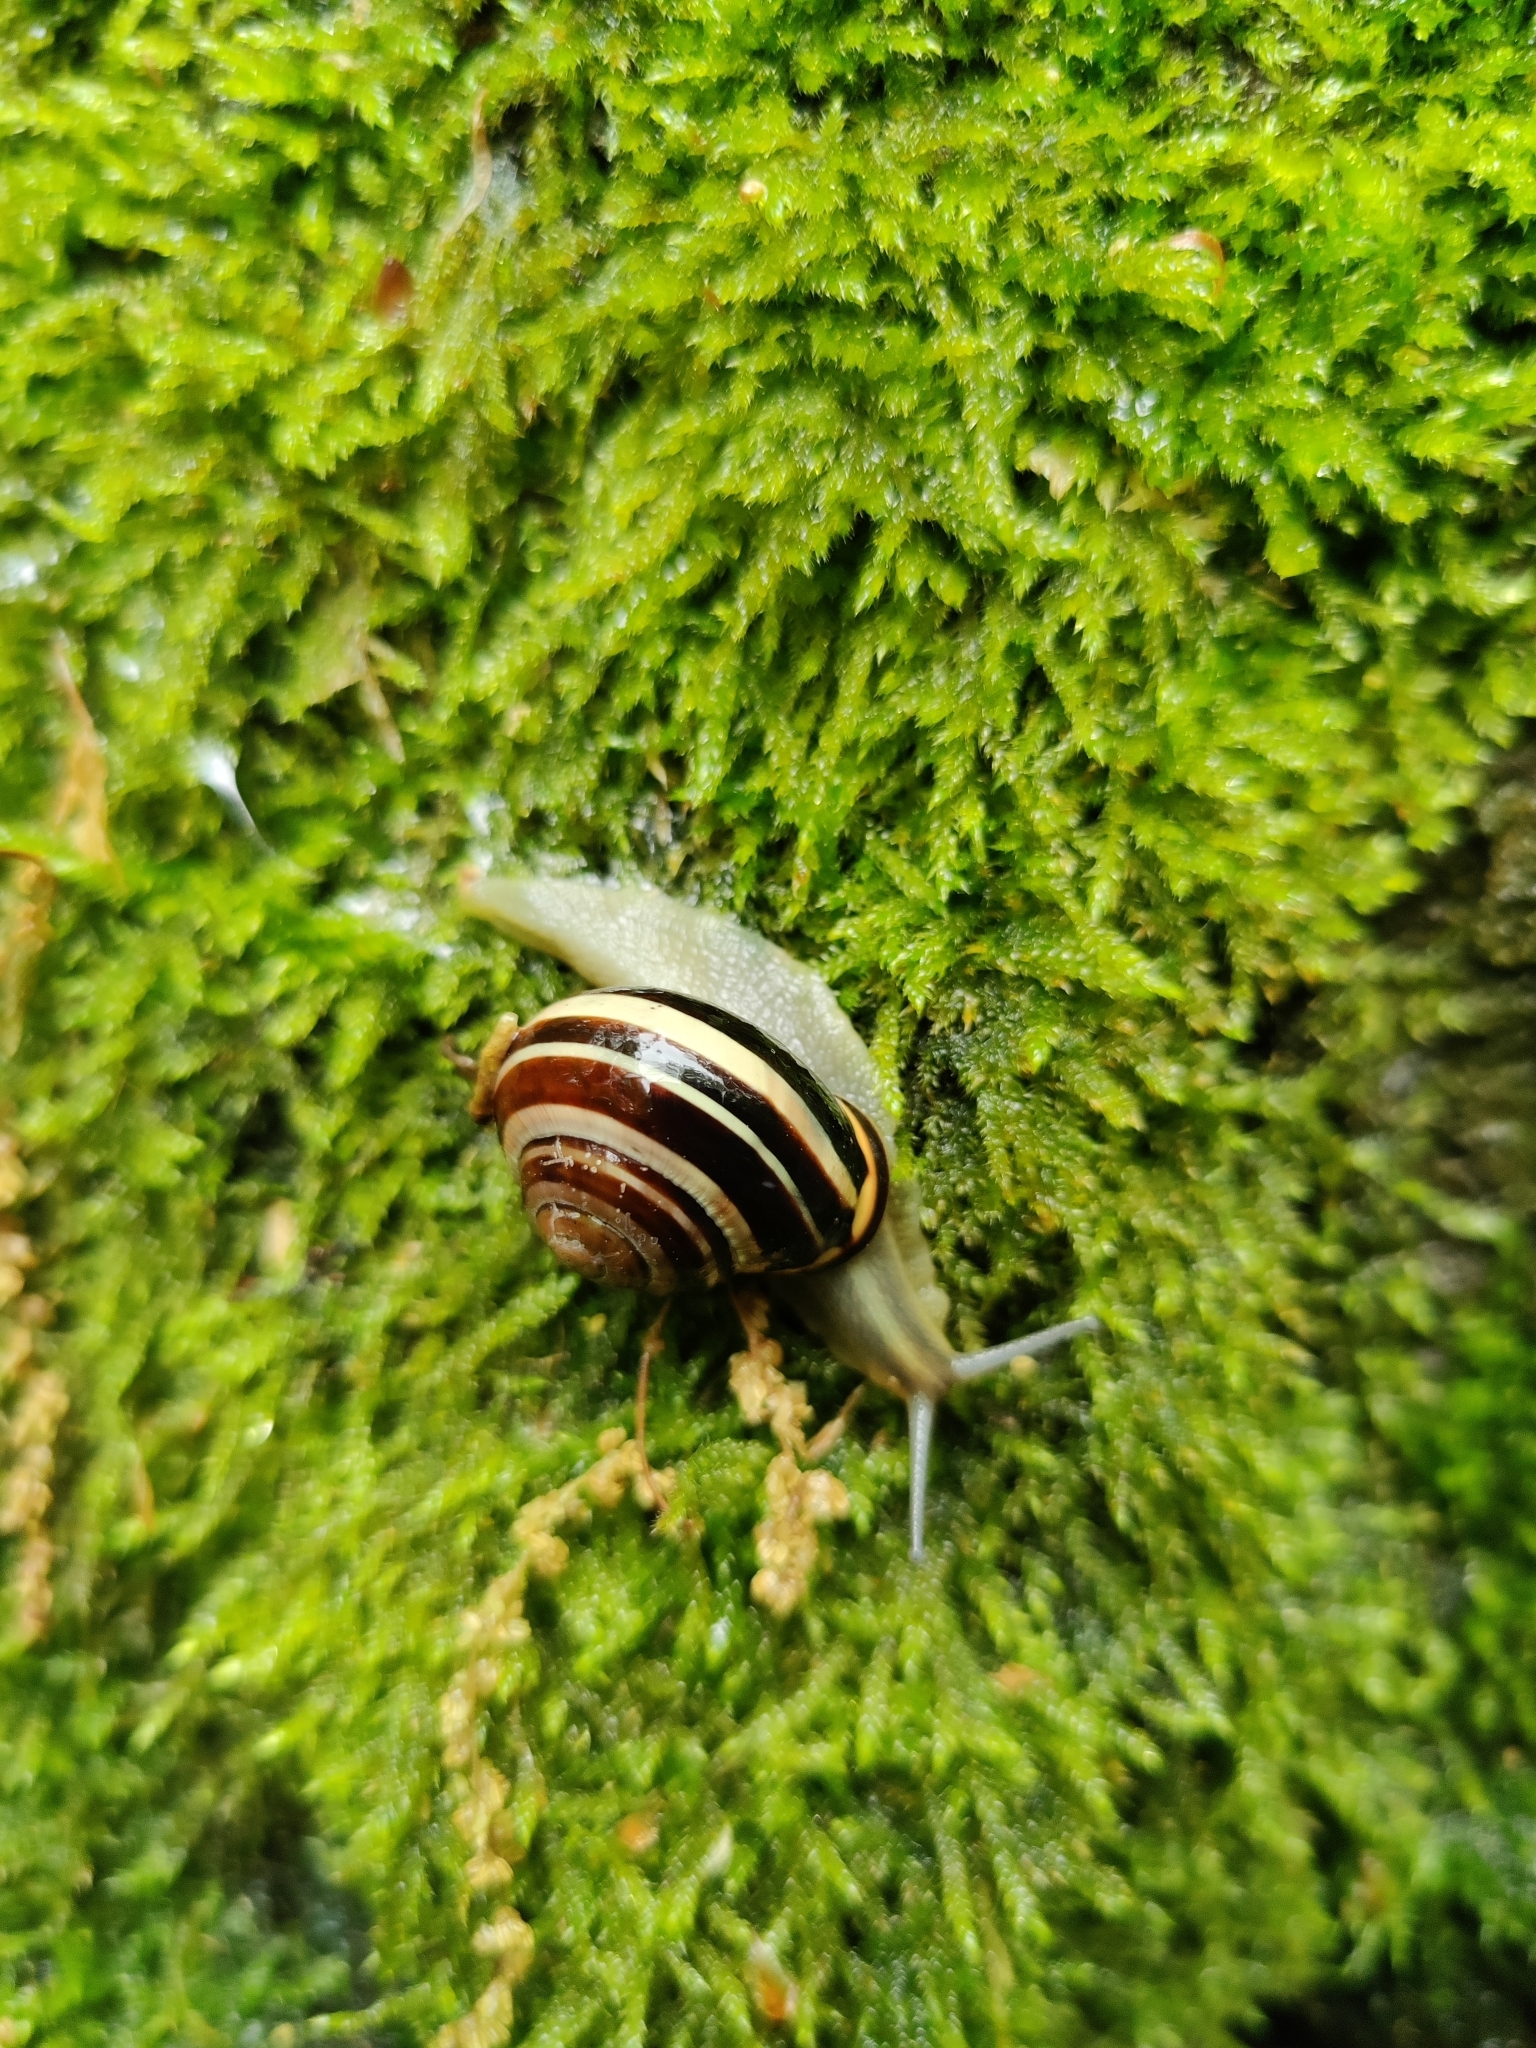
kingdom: Animalia
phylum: Mollusca
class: Gastropoda
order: Stylommatophora
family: Helicidae
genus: Cepaea
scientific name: Cepaea nemoralis
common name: Grovesnail
